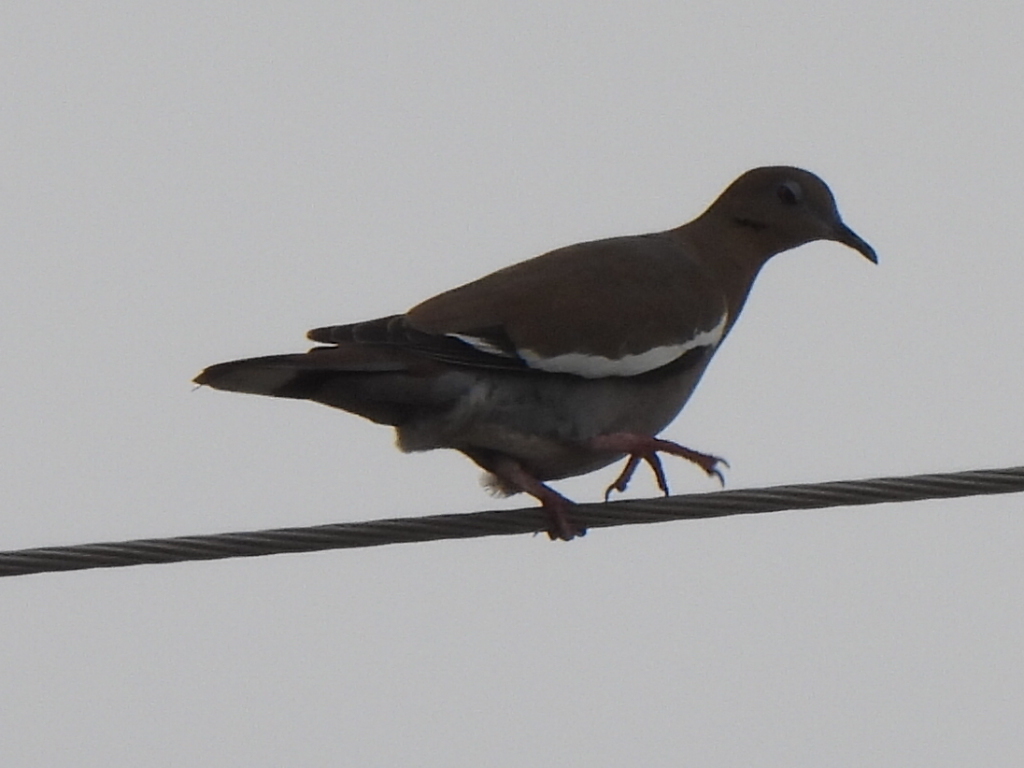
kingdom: Animalia
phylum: Chordata
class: Aves
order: Columbiformes
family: Columbidae
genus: Zenaida
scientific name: Zenaida asiatica
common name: White-winged dove
